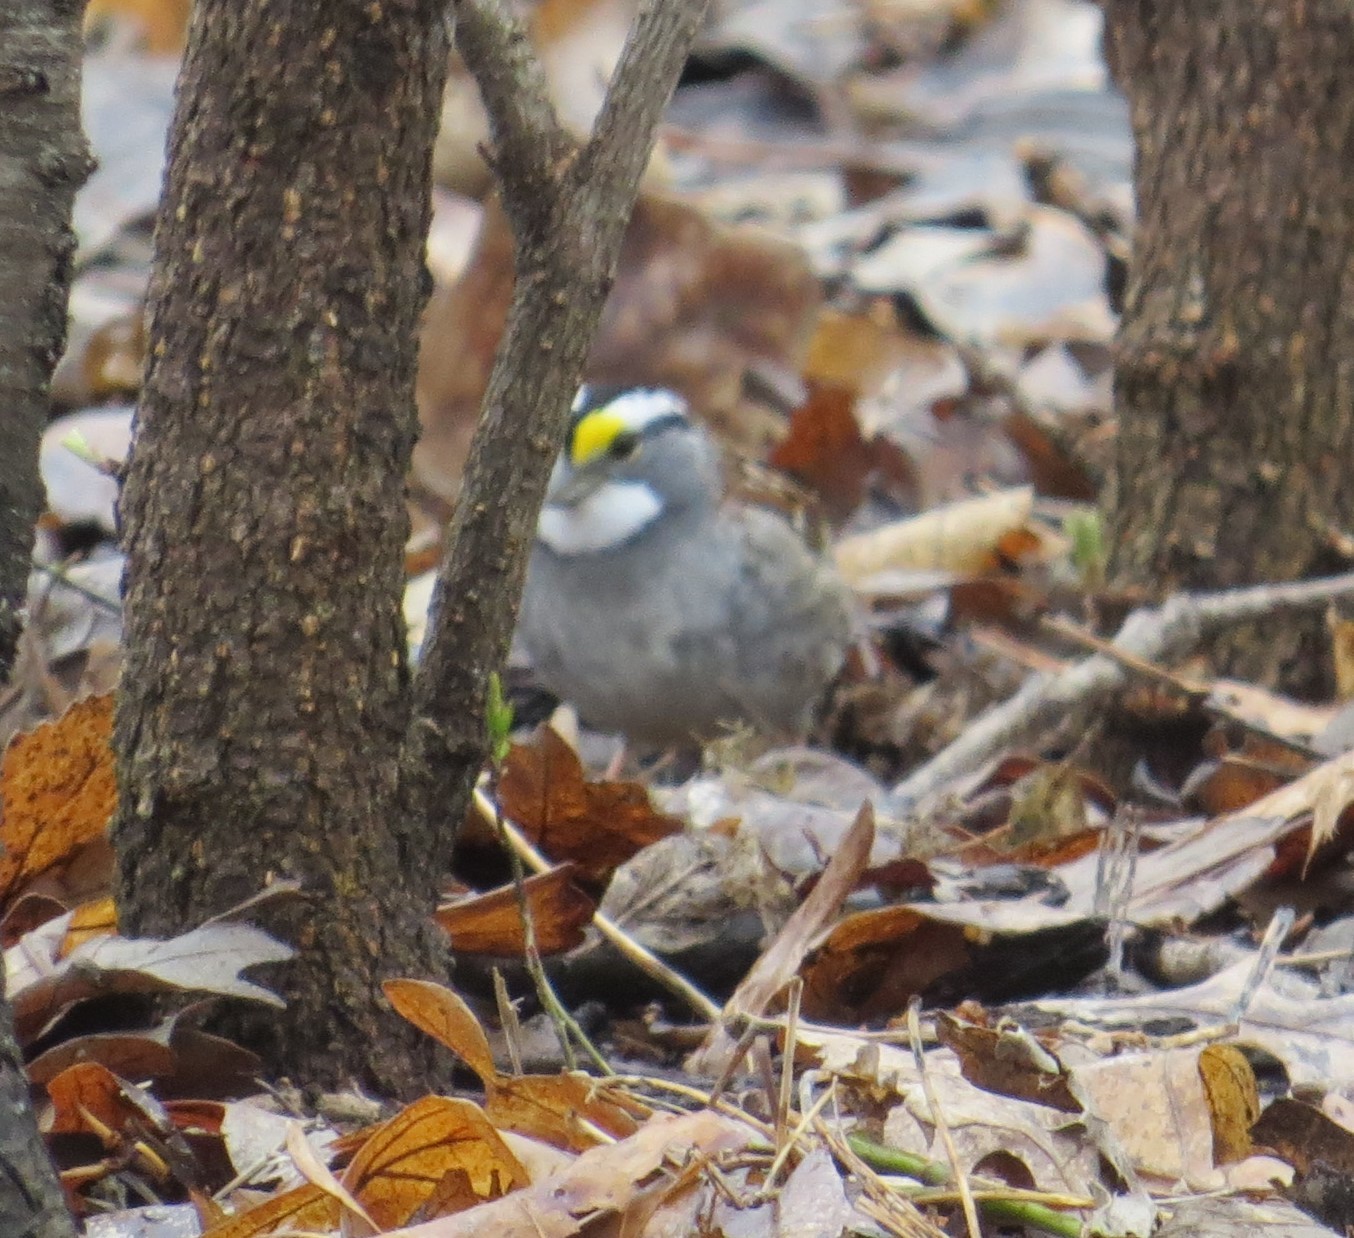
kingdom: Animalia
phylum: Chordata
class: Aves
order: Passeriformes
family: Passerellidae
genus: Zonotrichia
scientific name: Zonotrichia albicollis
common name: White-throated sparrow
